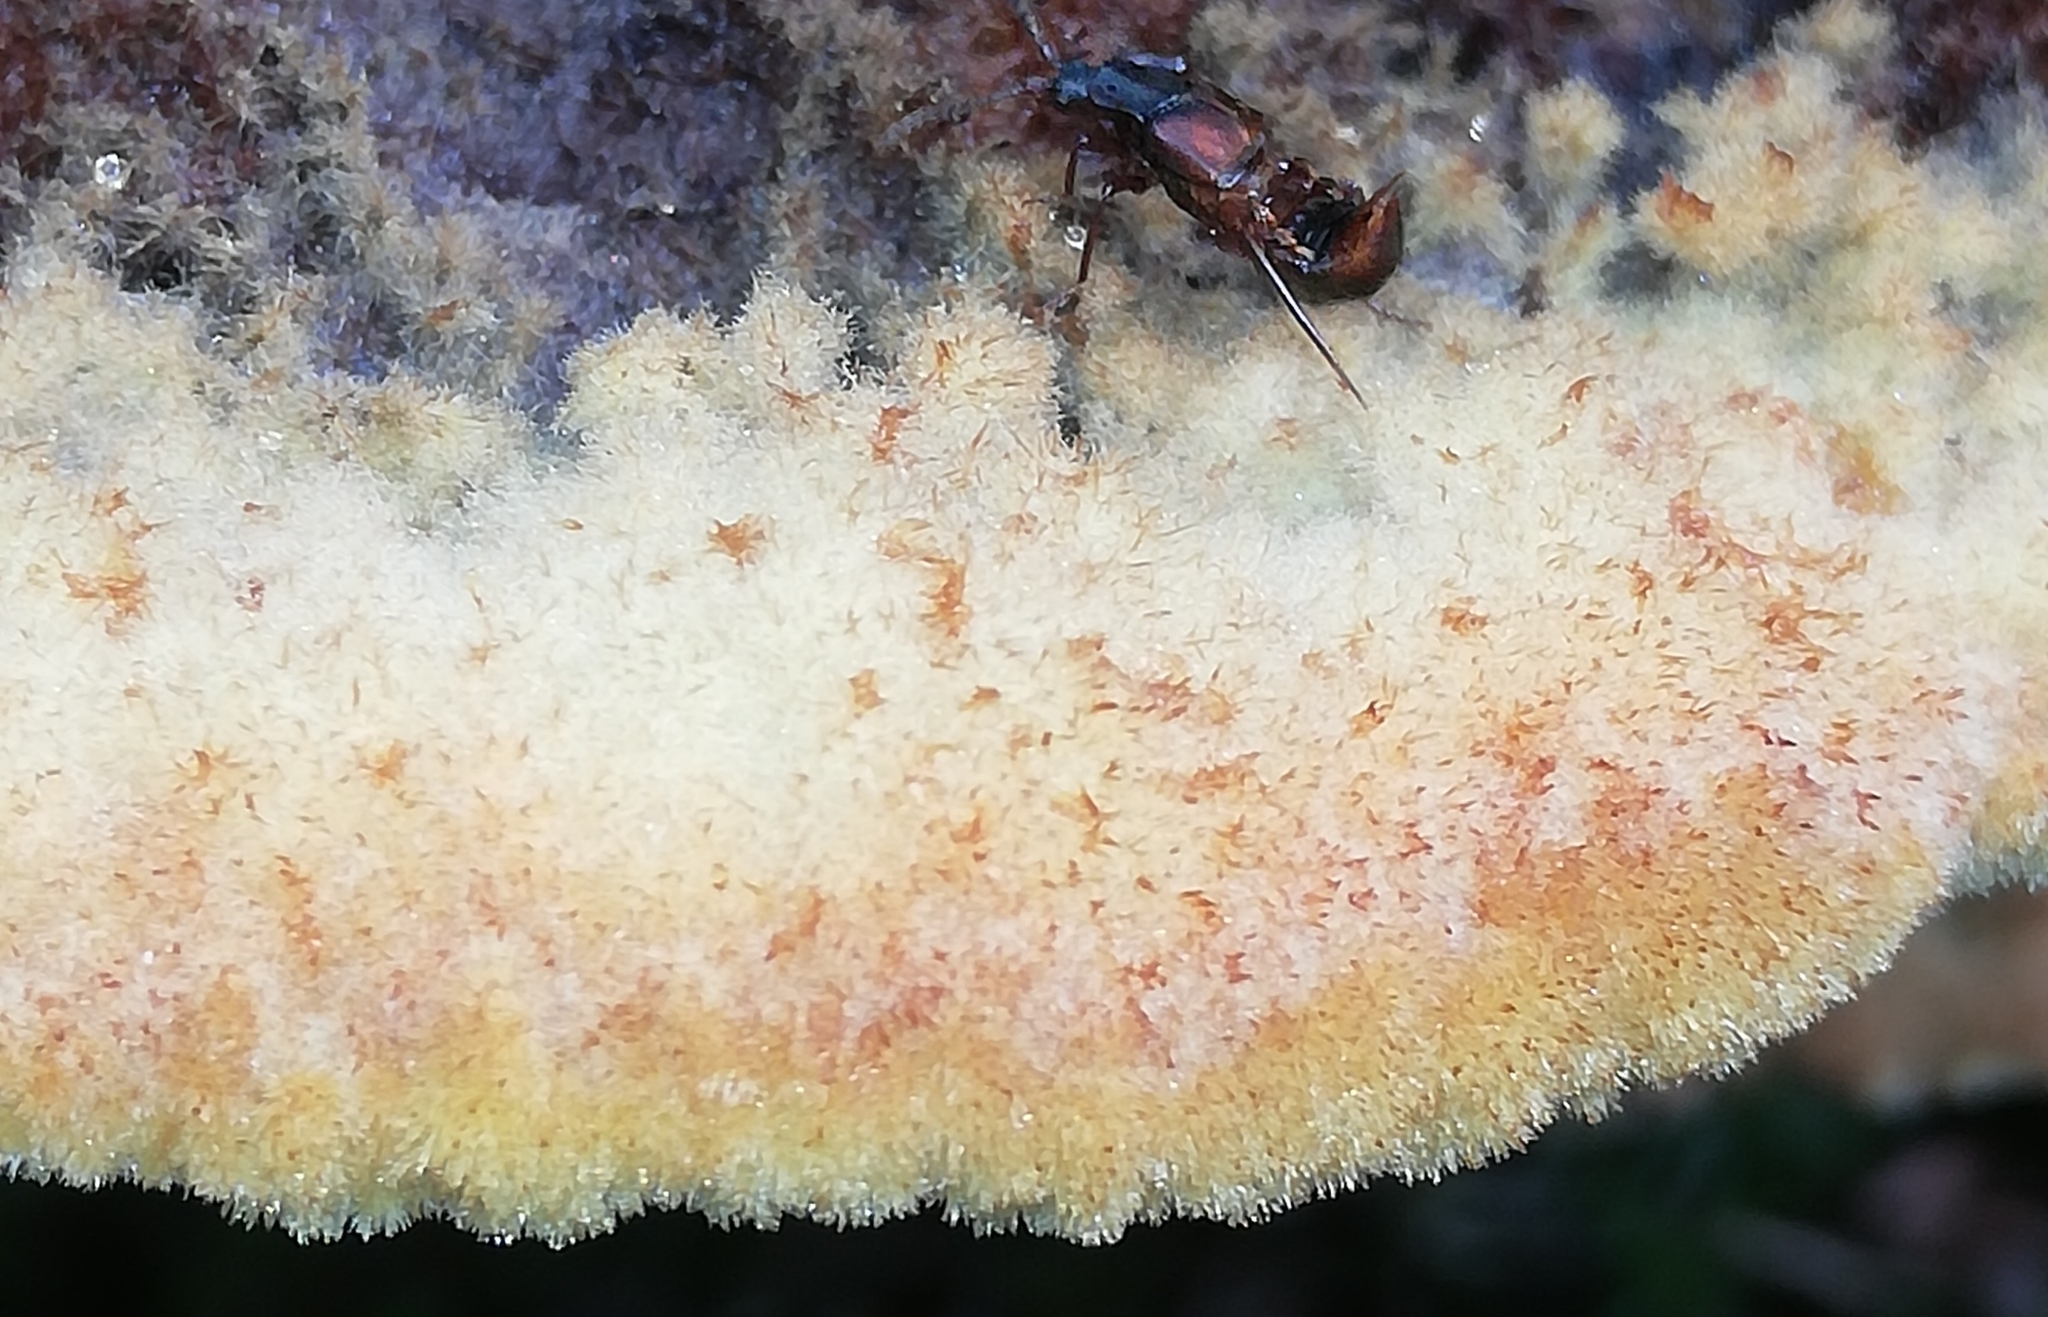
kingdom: Fungi
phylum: Basidiomycota
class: Agaricomycetes
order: Polyporales
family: Laetiporaceae
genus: Phaeolus
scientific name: Phaeolus schweinitzii
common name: Dyer's mazegill
